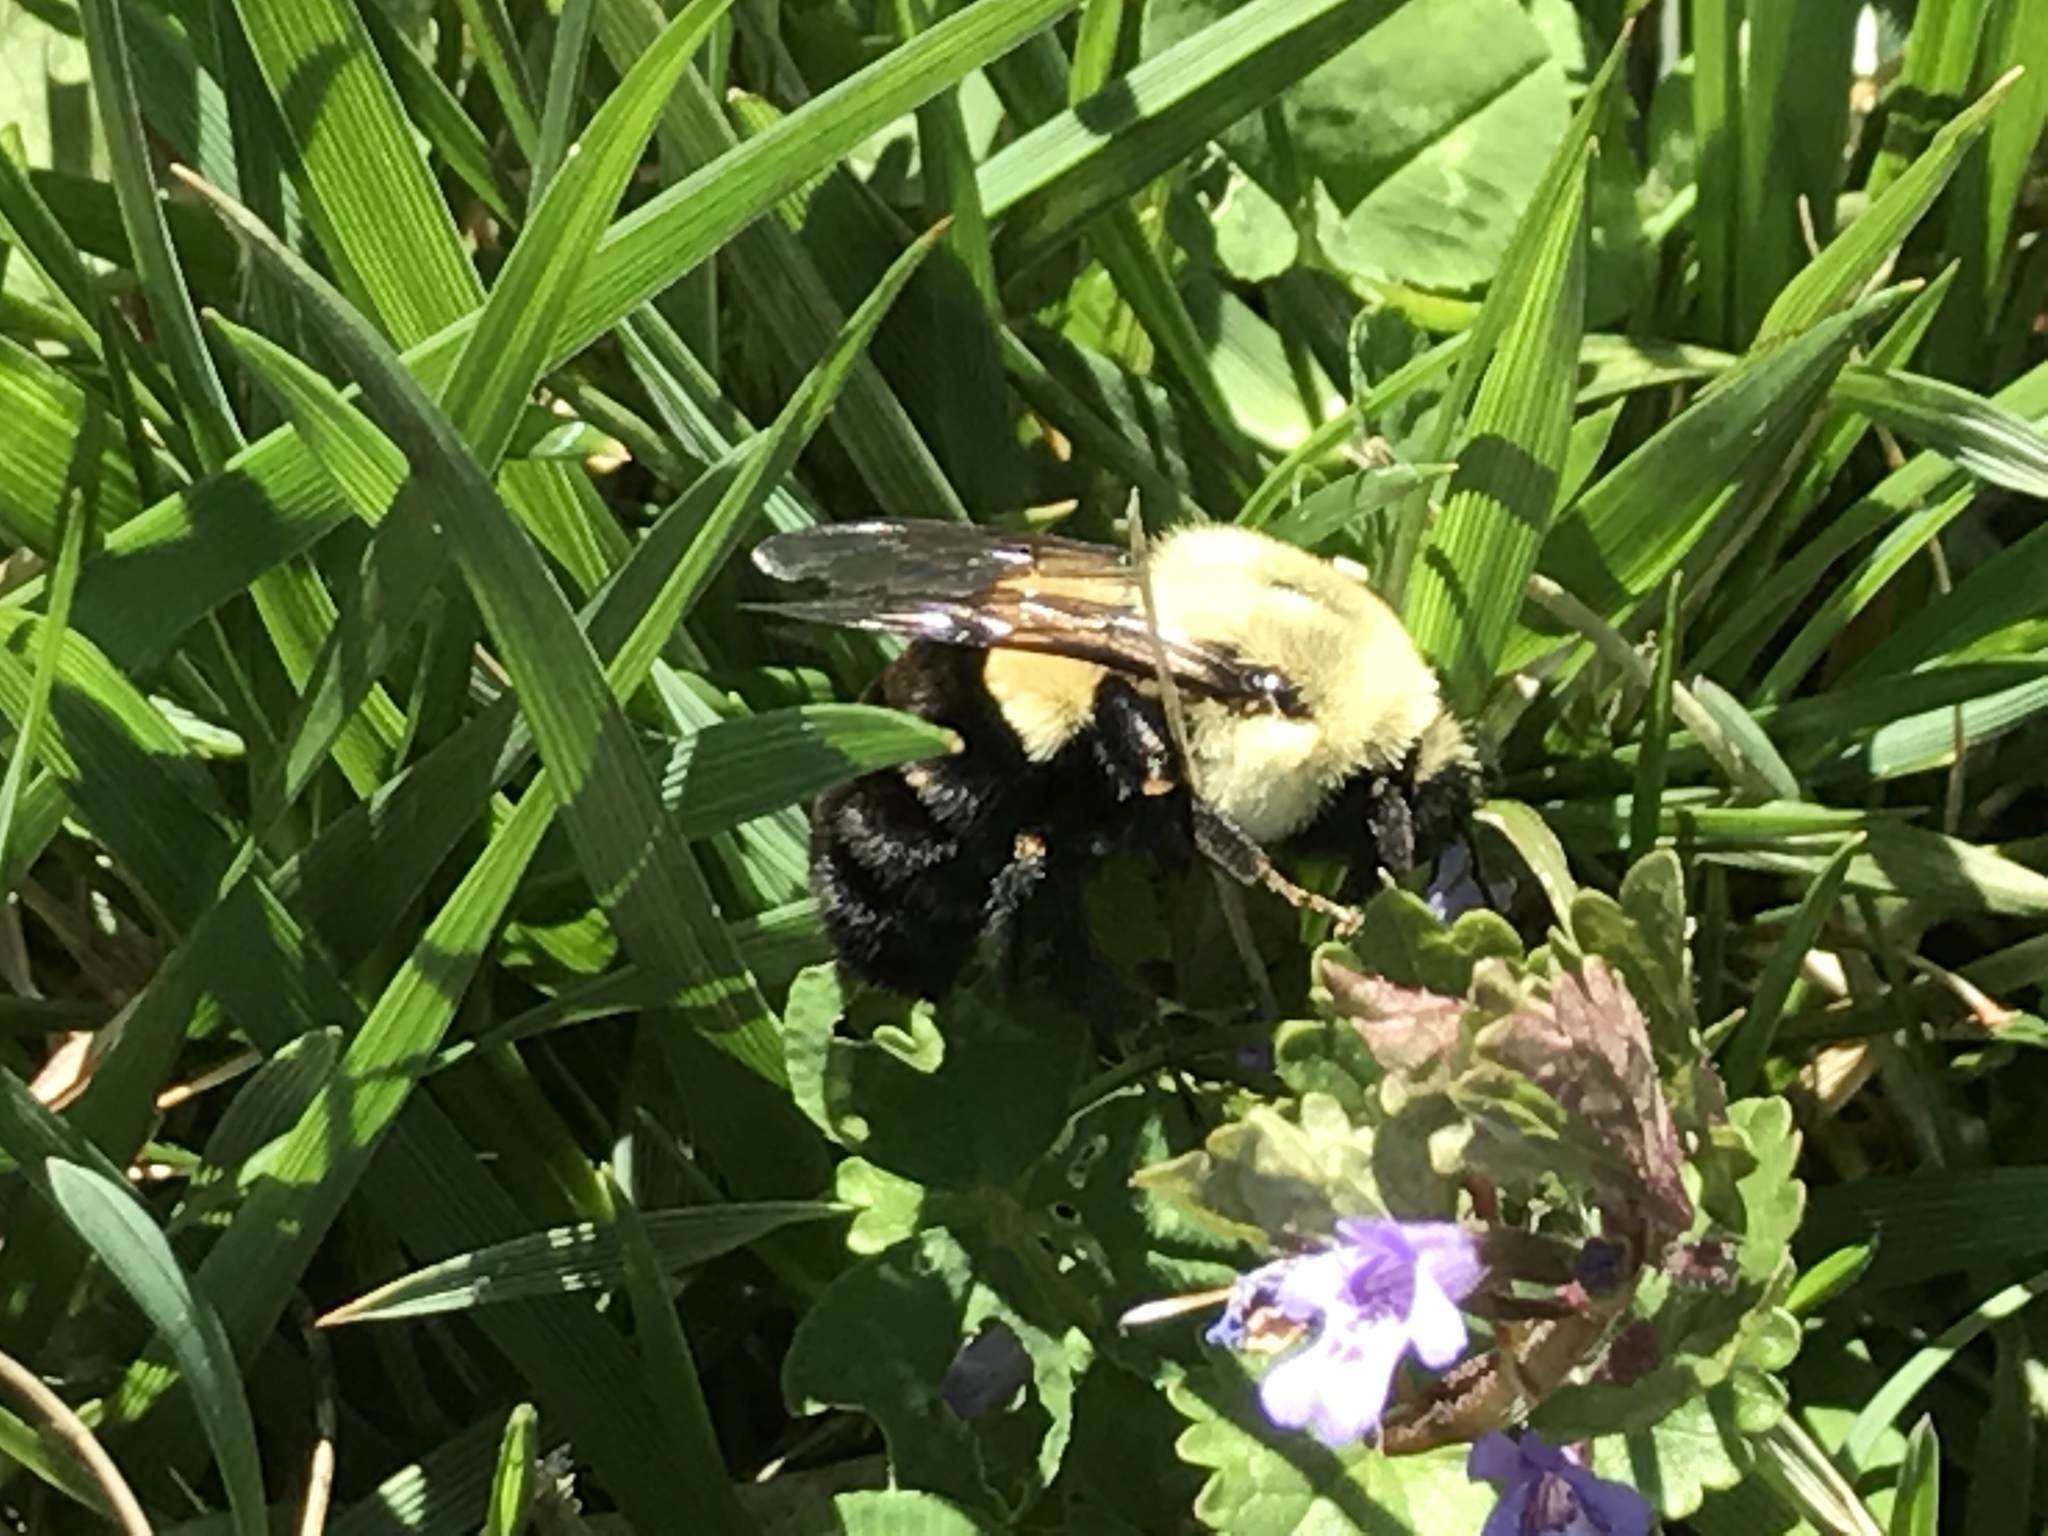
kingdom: Animalia
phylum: Arthropoda
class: Insecta
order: Hymenoptera
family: Apidae
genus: Bombus
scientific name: Bombus impatiens
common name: Common eastern bumble bee
